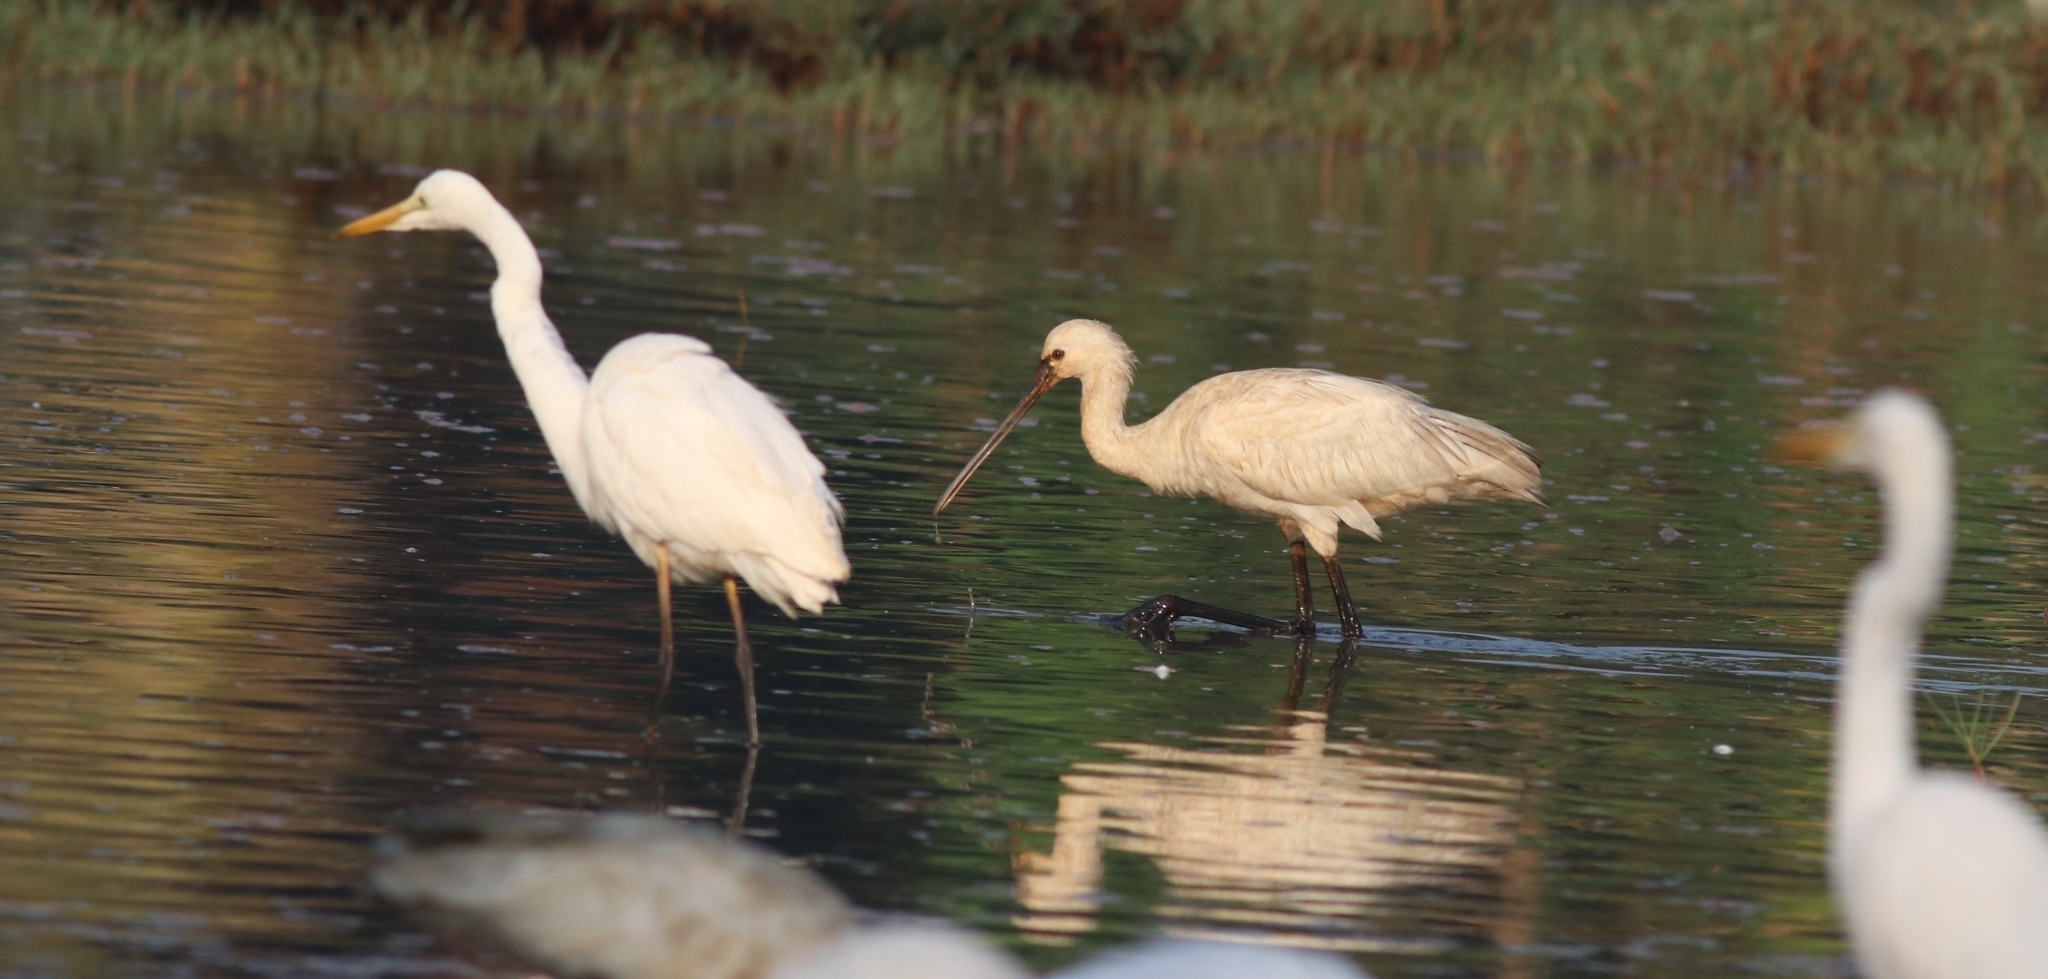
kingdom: Animalia
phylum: Chordata
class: Aves
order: Pelecaniformes
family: Threskiornithidae
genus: Platalea
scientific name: Platalea leucorodia
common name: Eurasian spoonbill
